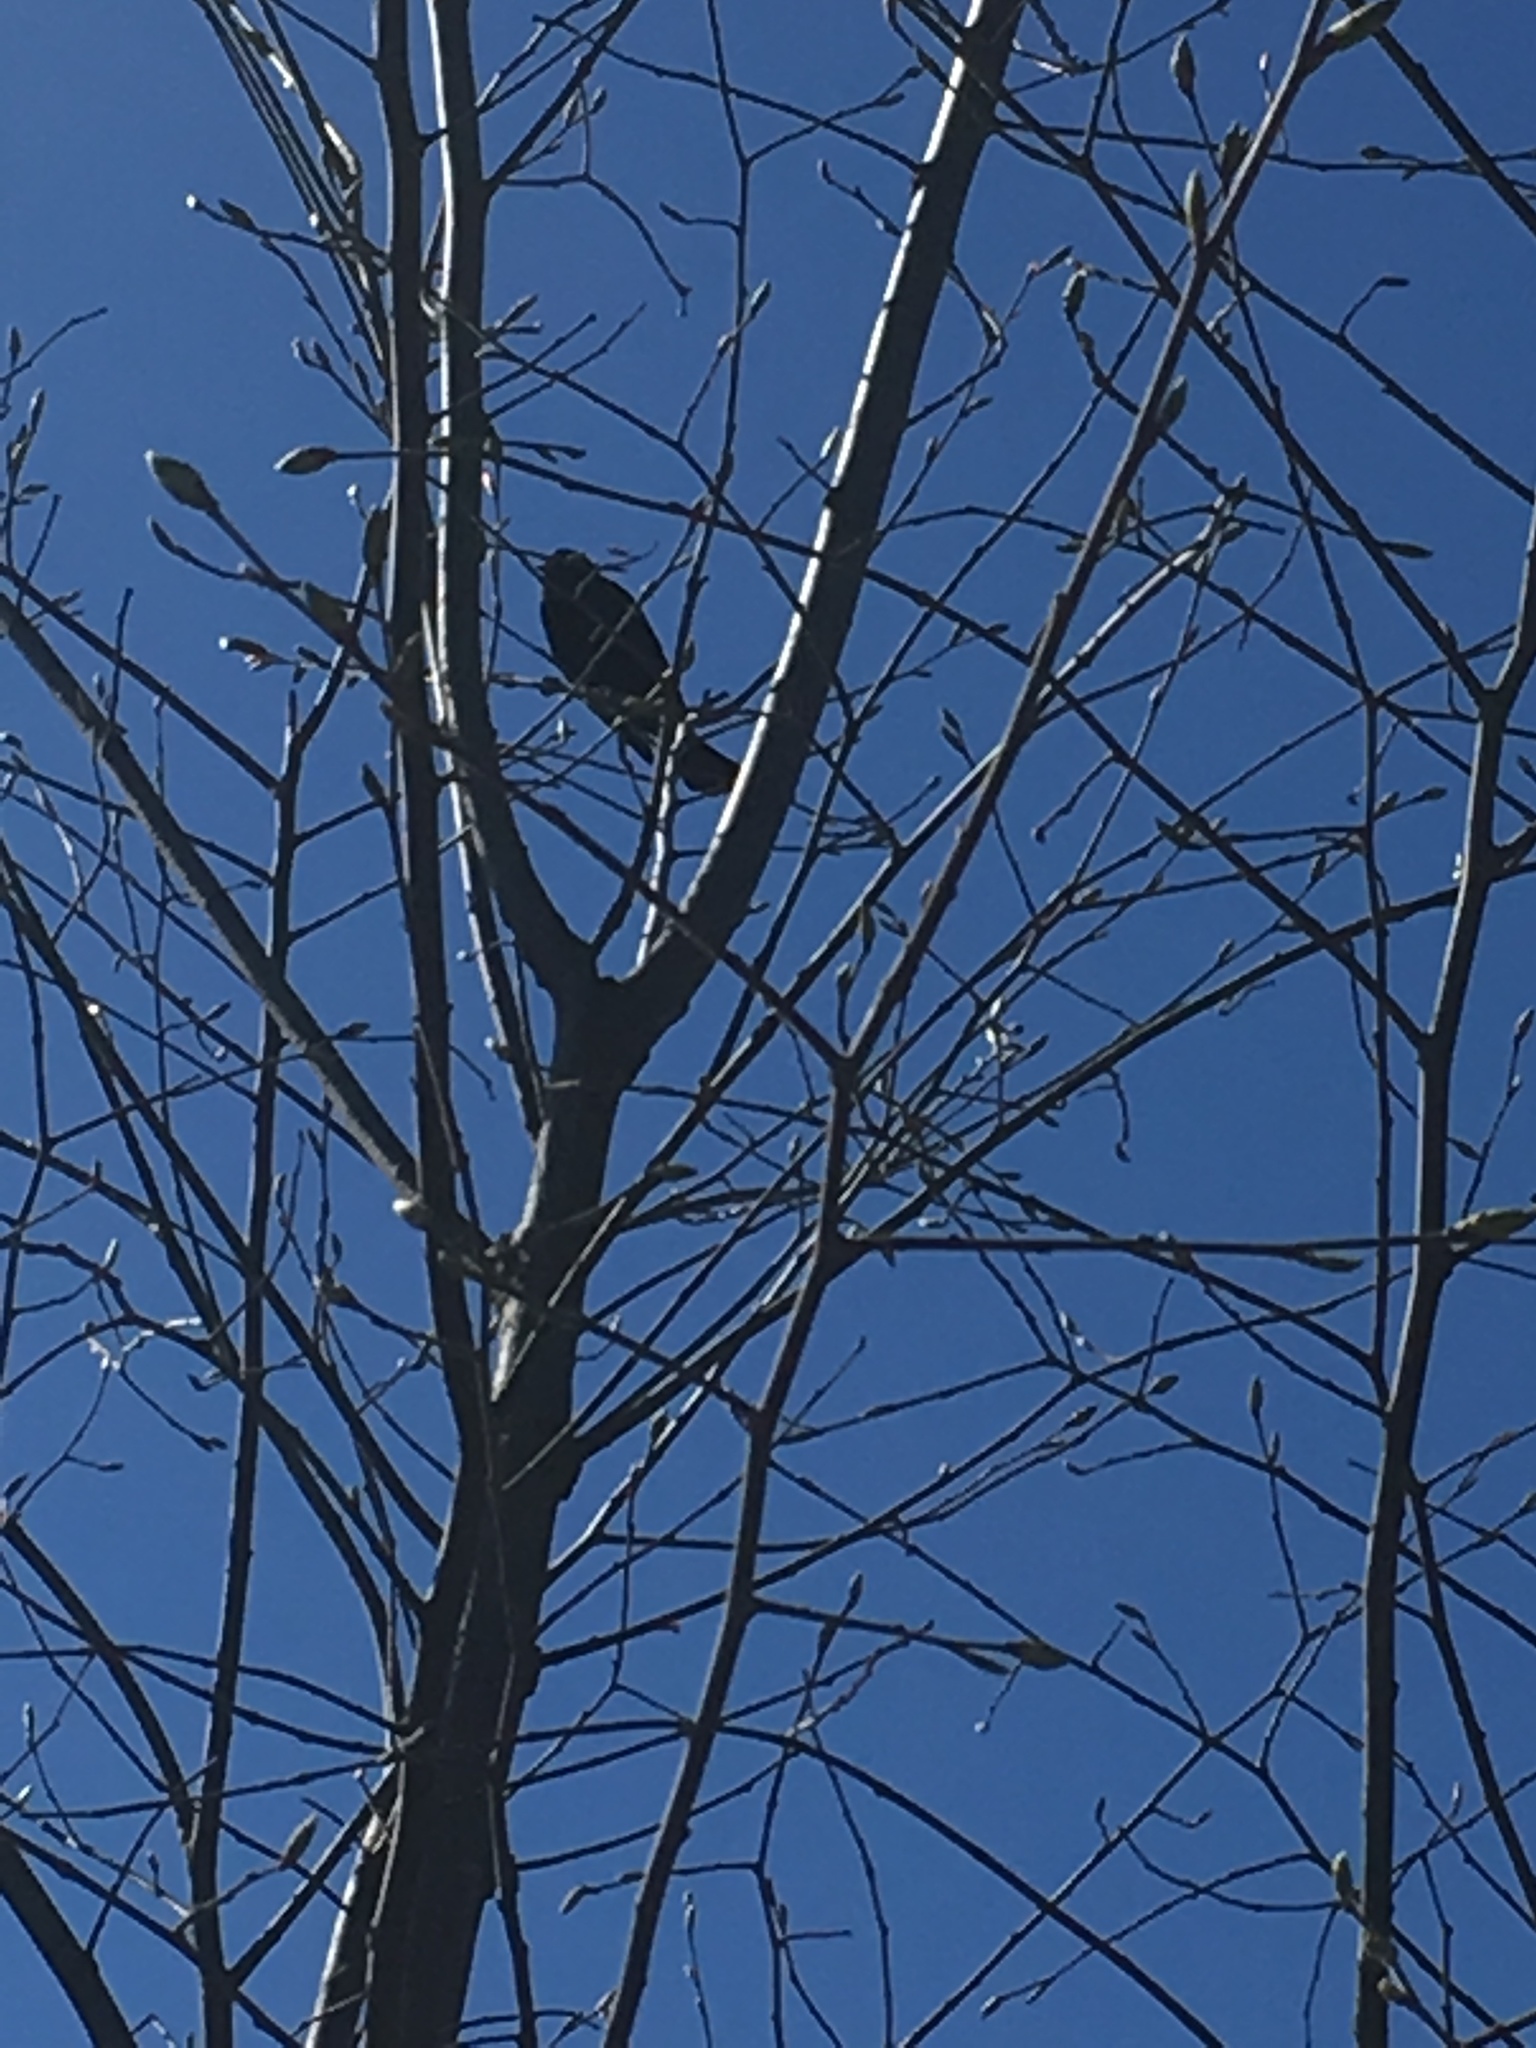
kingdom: Animalia
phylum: Chordata
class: Aves
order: Passeriformes
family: Icteridae
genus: Agelaius
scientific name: Agelaius phoeniceus
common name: Red-winged blackbird
